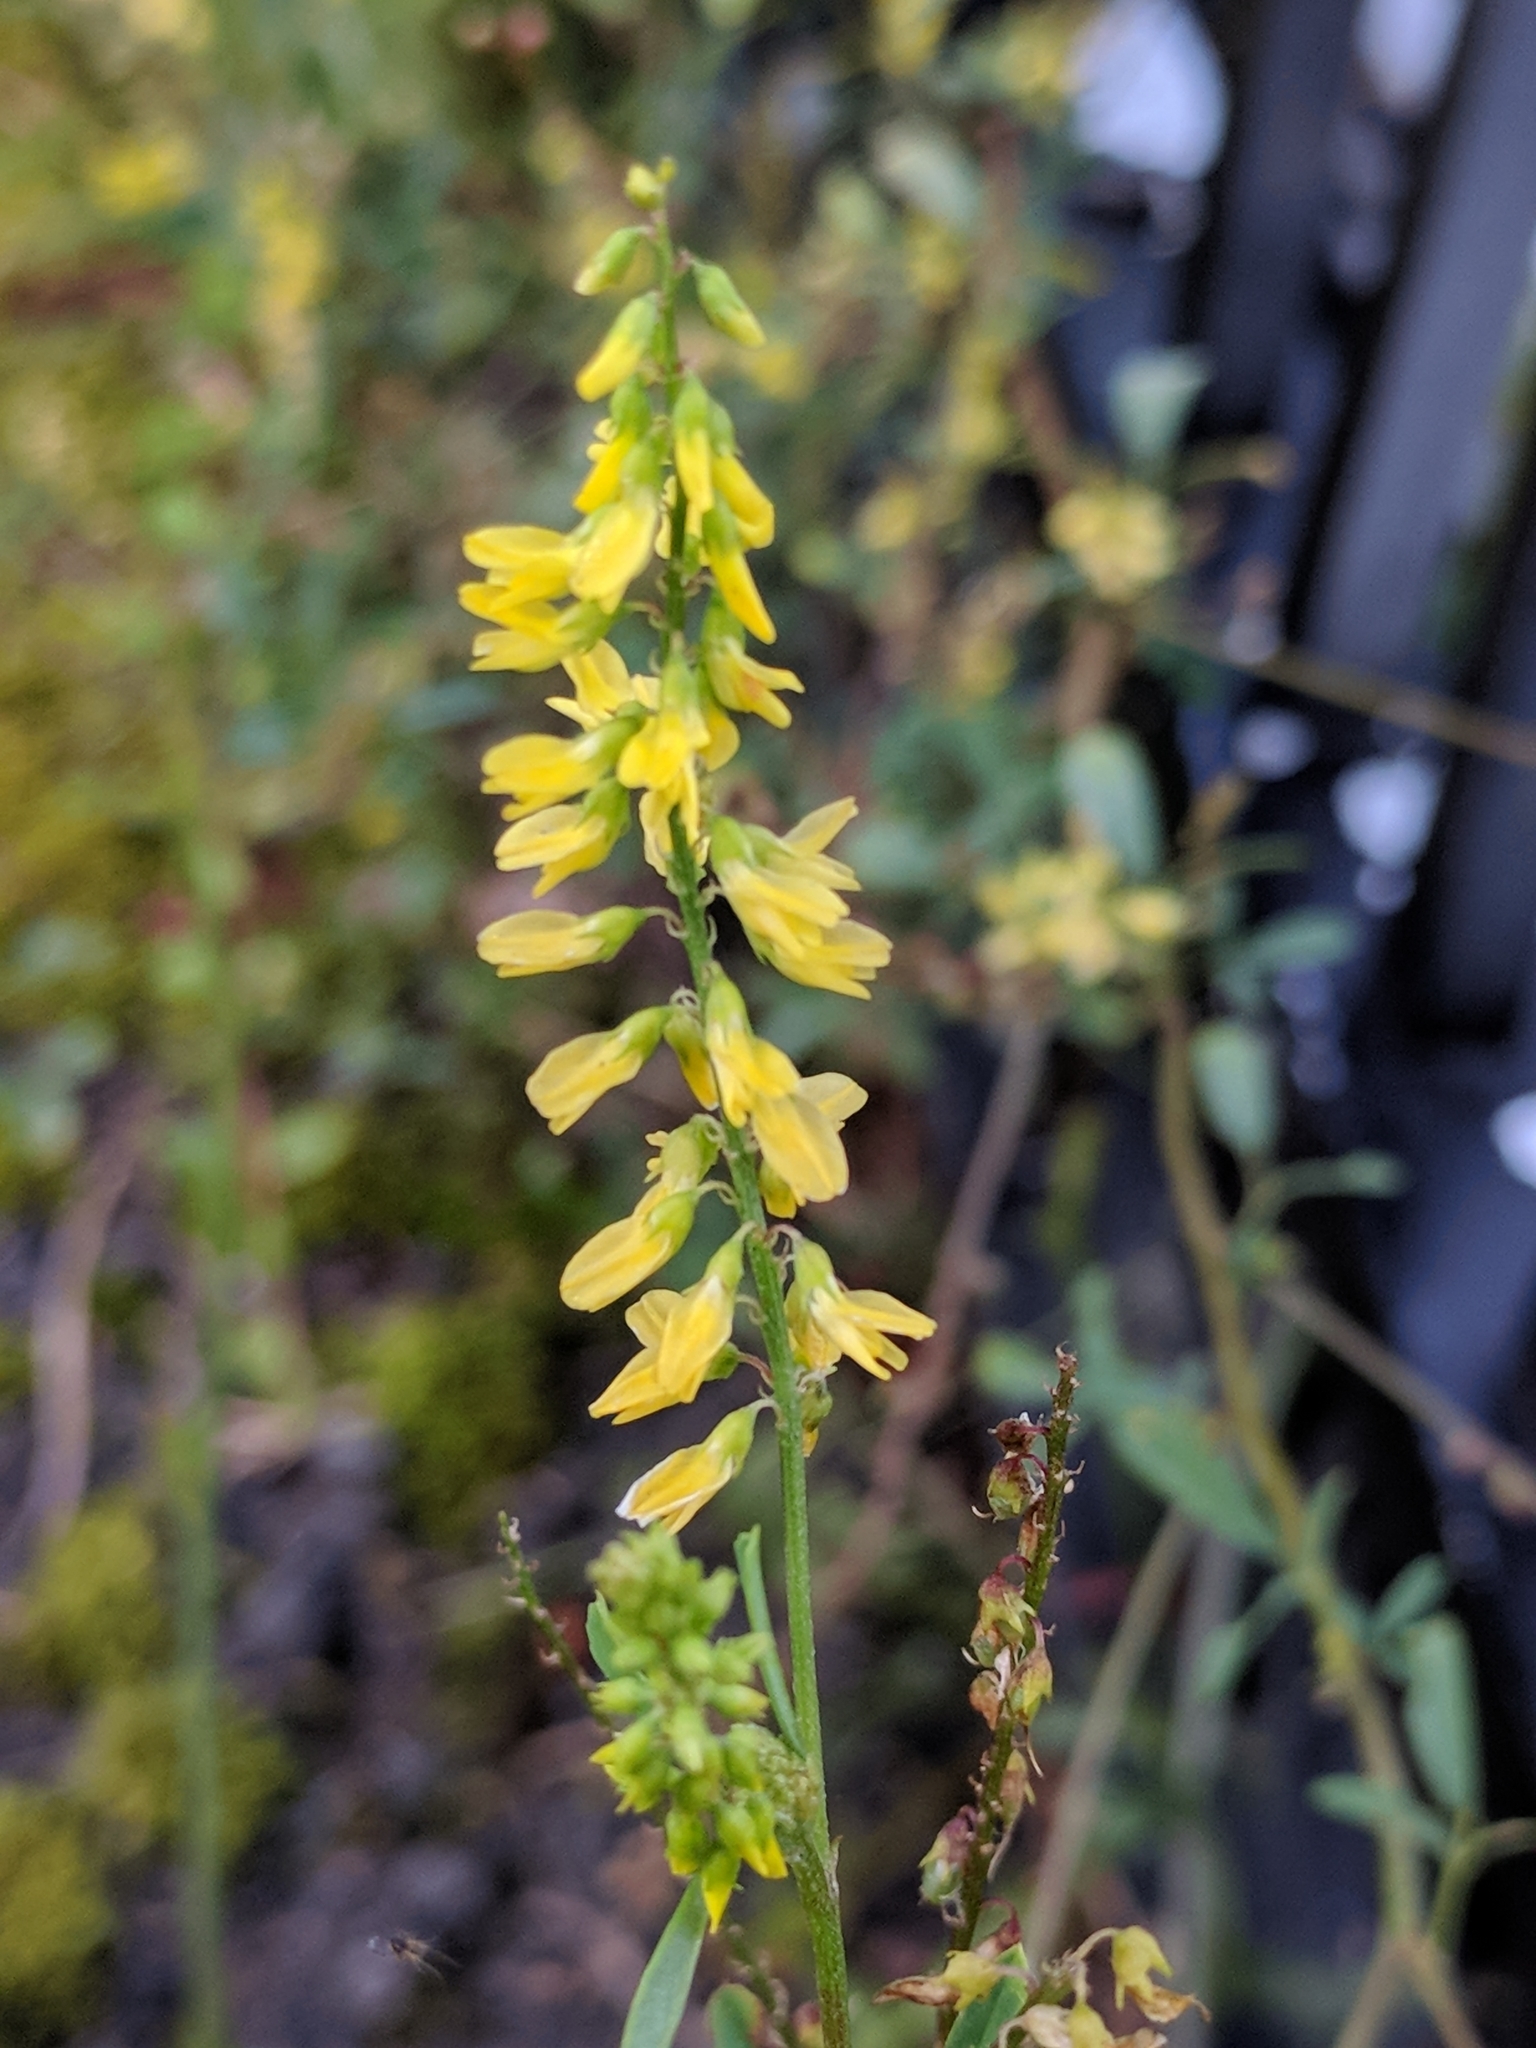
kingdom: Plantae
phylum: Tracheophyta
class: Magnoliopsida
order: Fabales
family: Fabaceae
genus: Melilotus
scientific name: Melilotus officinalis
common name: Sweetclover
